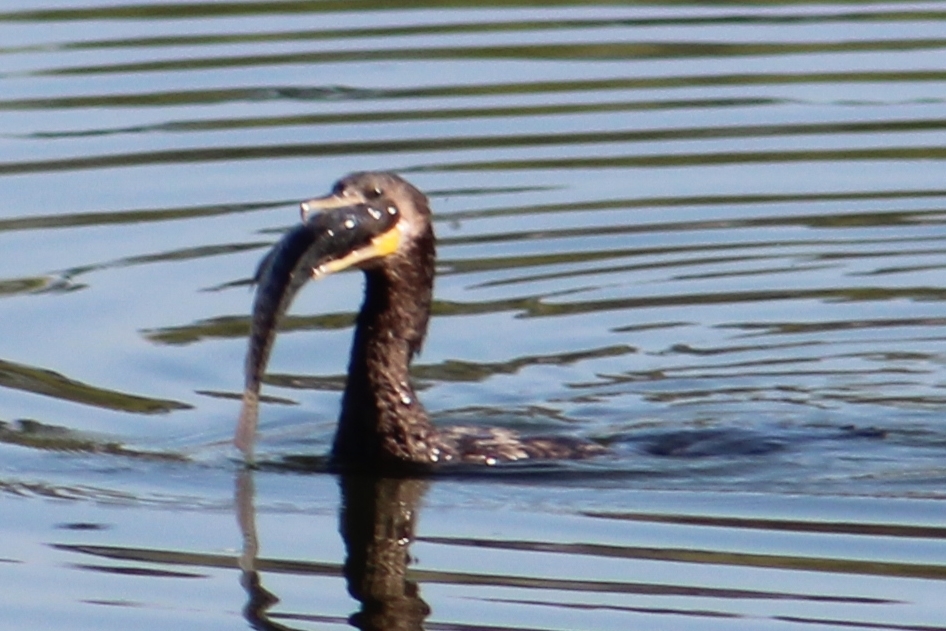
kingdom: Animalia
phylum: Chordata
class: Aves
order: Suliformes
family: Phalacrocoracidae
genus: Phalacrocorax
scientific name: Phalacrocorax brasilianus
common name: Neotropic cormorant
